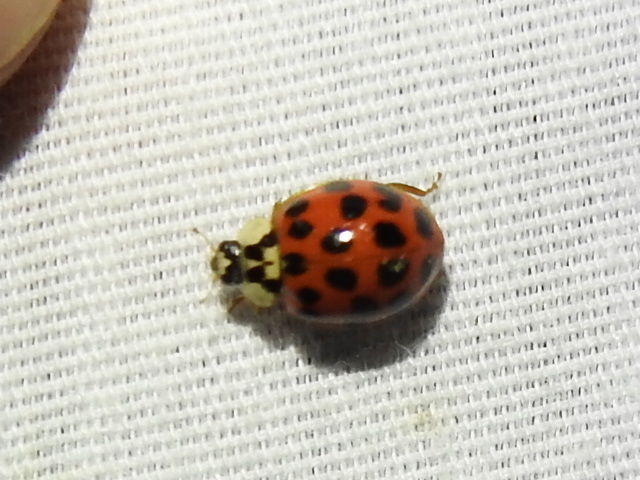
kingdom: Animalia
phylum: Arthropoda
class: Insecta
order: Coleoptera
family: Coccinellidae
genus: Harmonia
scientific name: Harmonia axyridis
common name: Harlequin ladybird
